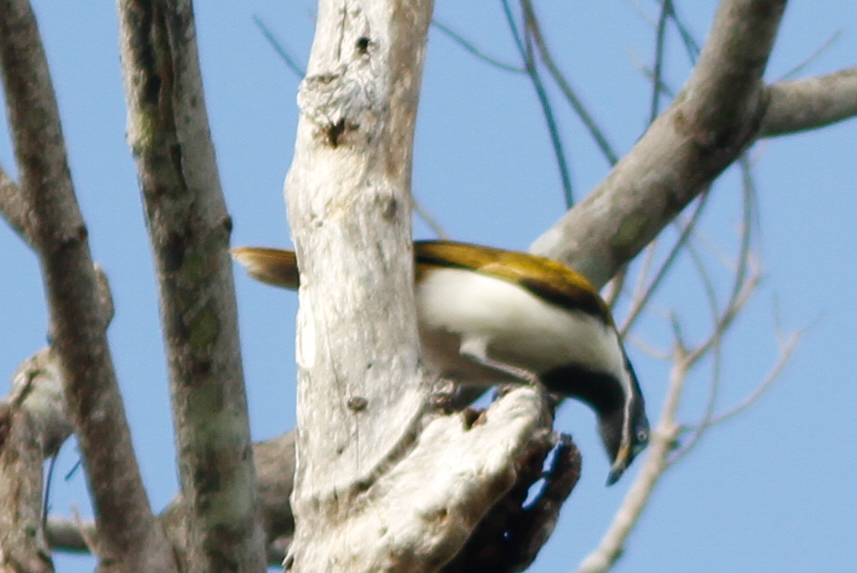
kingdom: Animalia
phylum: Chordata
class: Aves
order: Passeriformes
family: Meliphagidae
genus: Entomyzon
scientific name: Entomyzon cyanotis
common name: Blue-faced honeyeater
